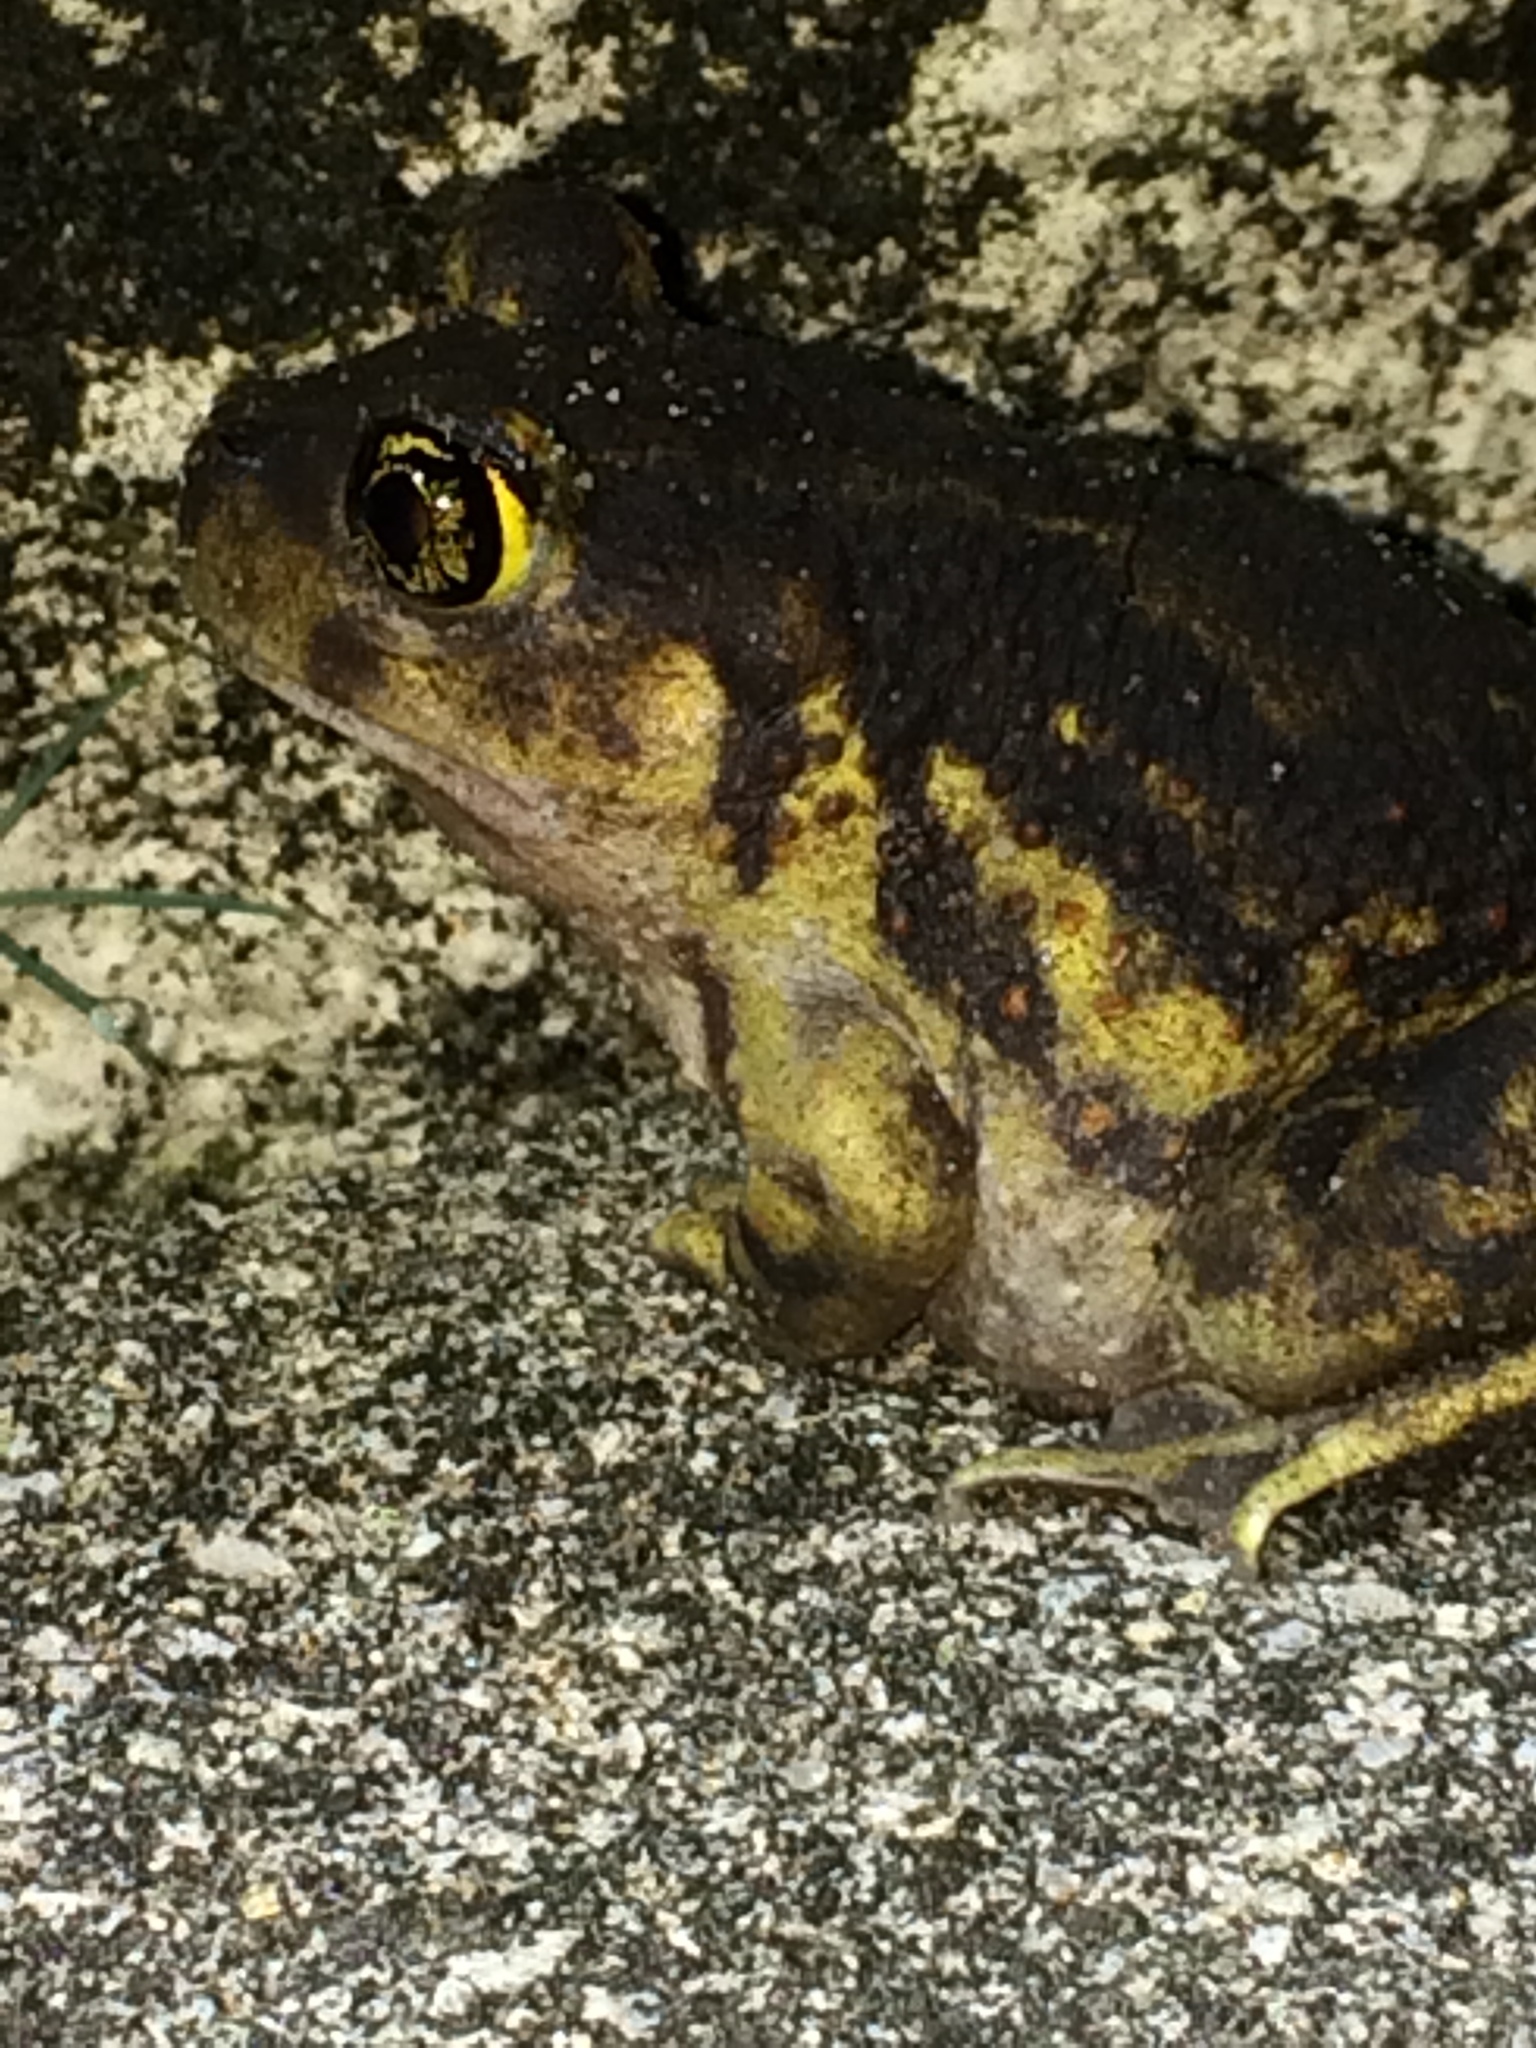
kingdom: Animalia
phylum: Chordata
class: Amphibia
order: Anura
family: Scaphiopodidae
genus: Scaphiopus
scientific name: Scaphiopus holbrookii
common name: Eastern spadefoot toad
